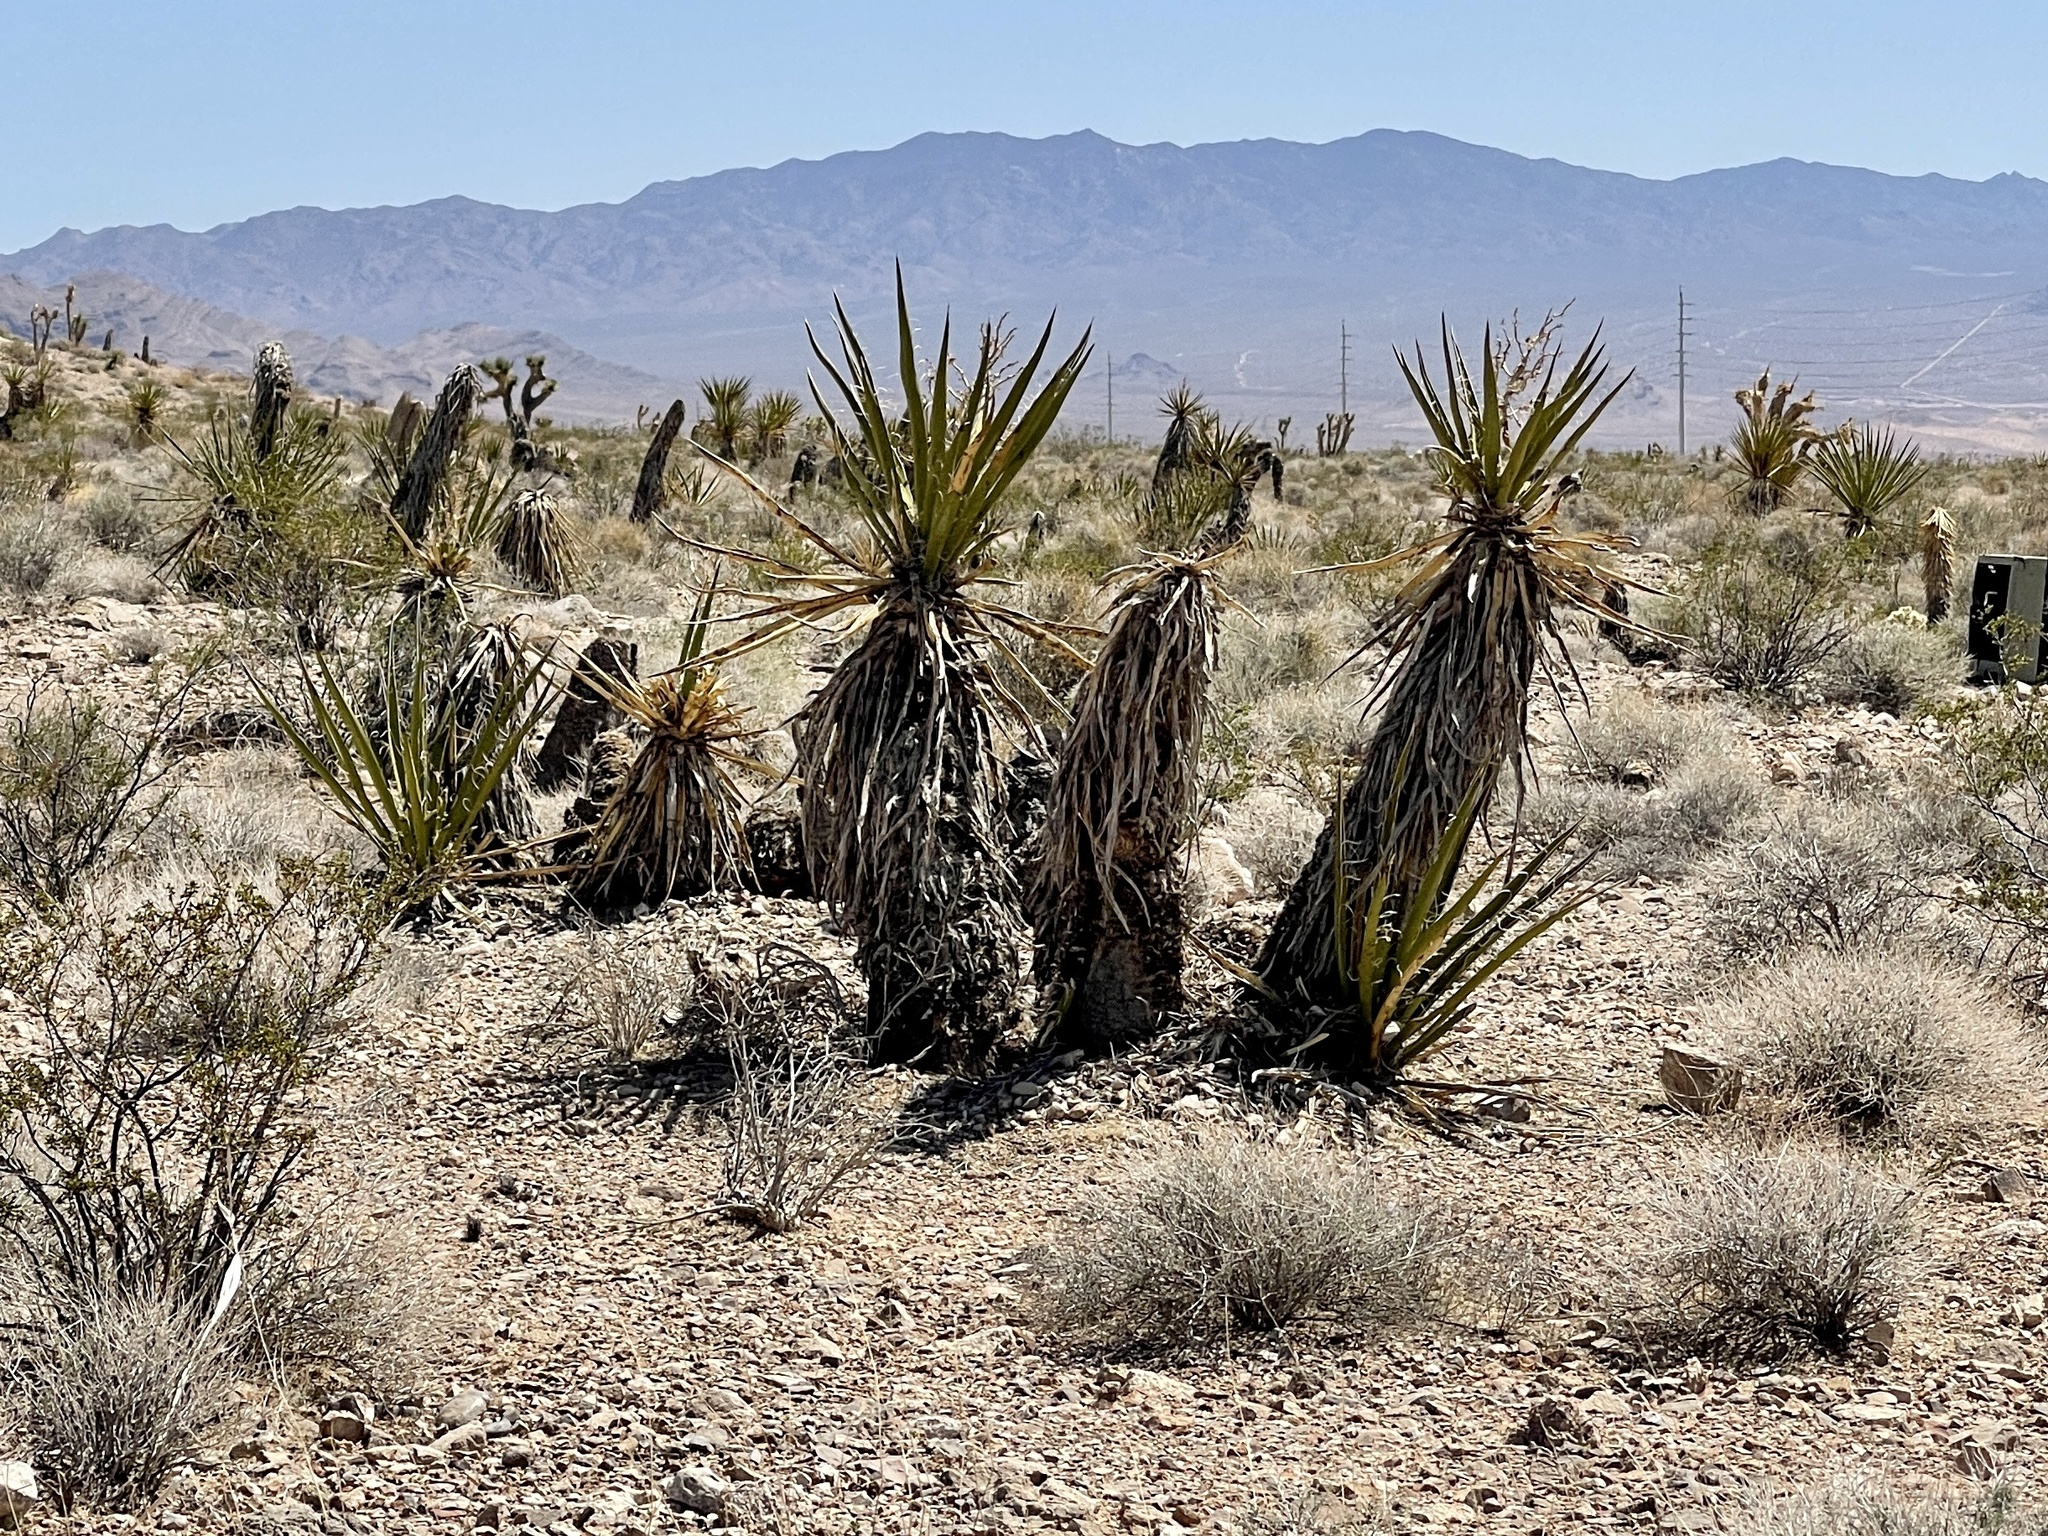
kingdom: Plantae
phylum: Tracheophyta
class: Liliopsida
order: Asparagales
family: Asparagaceae
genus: Yucca
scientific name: Yucca schidigera
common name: Mojave yucca
